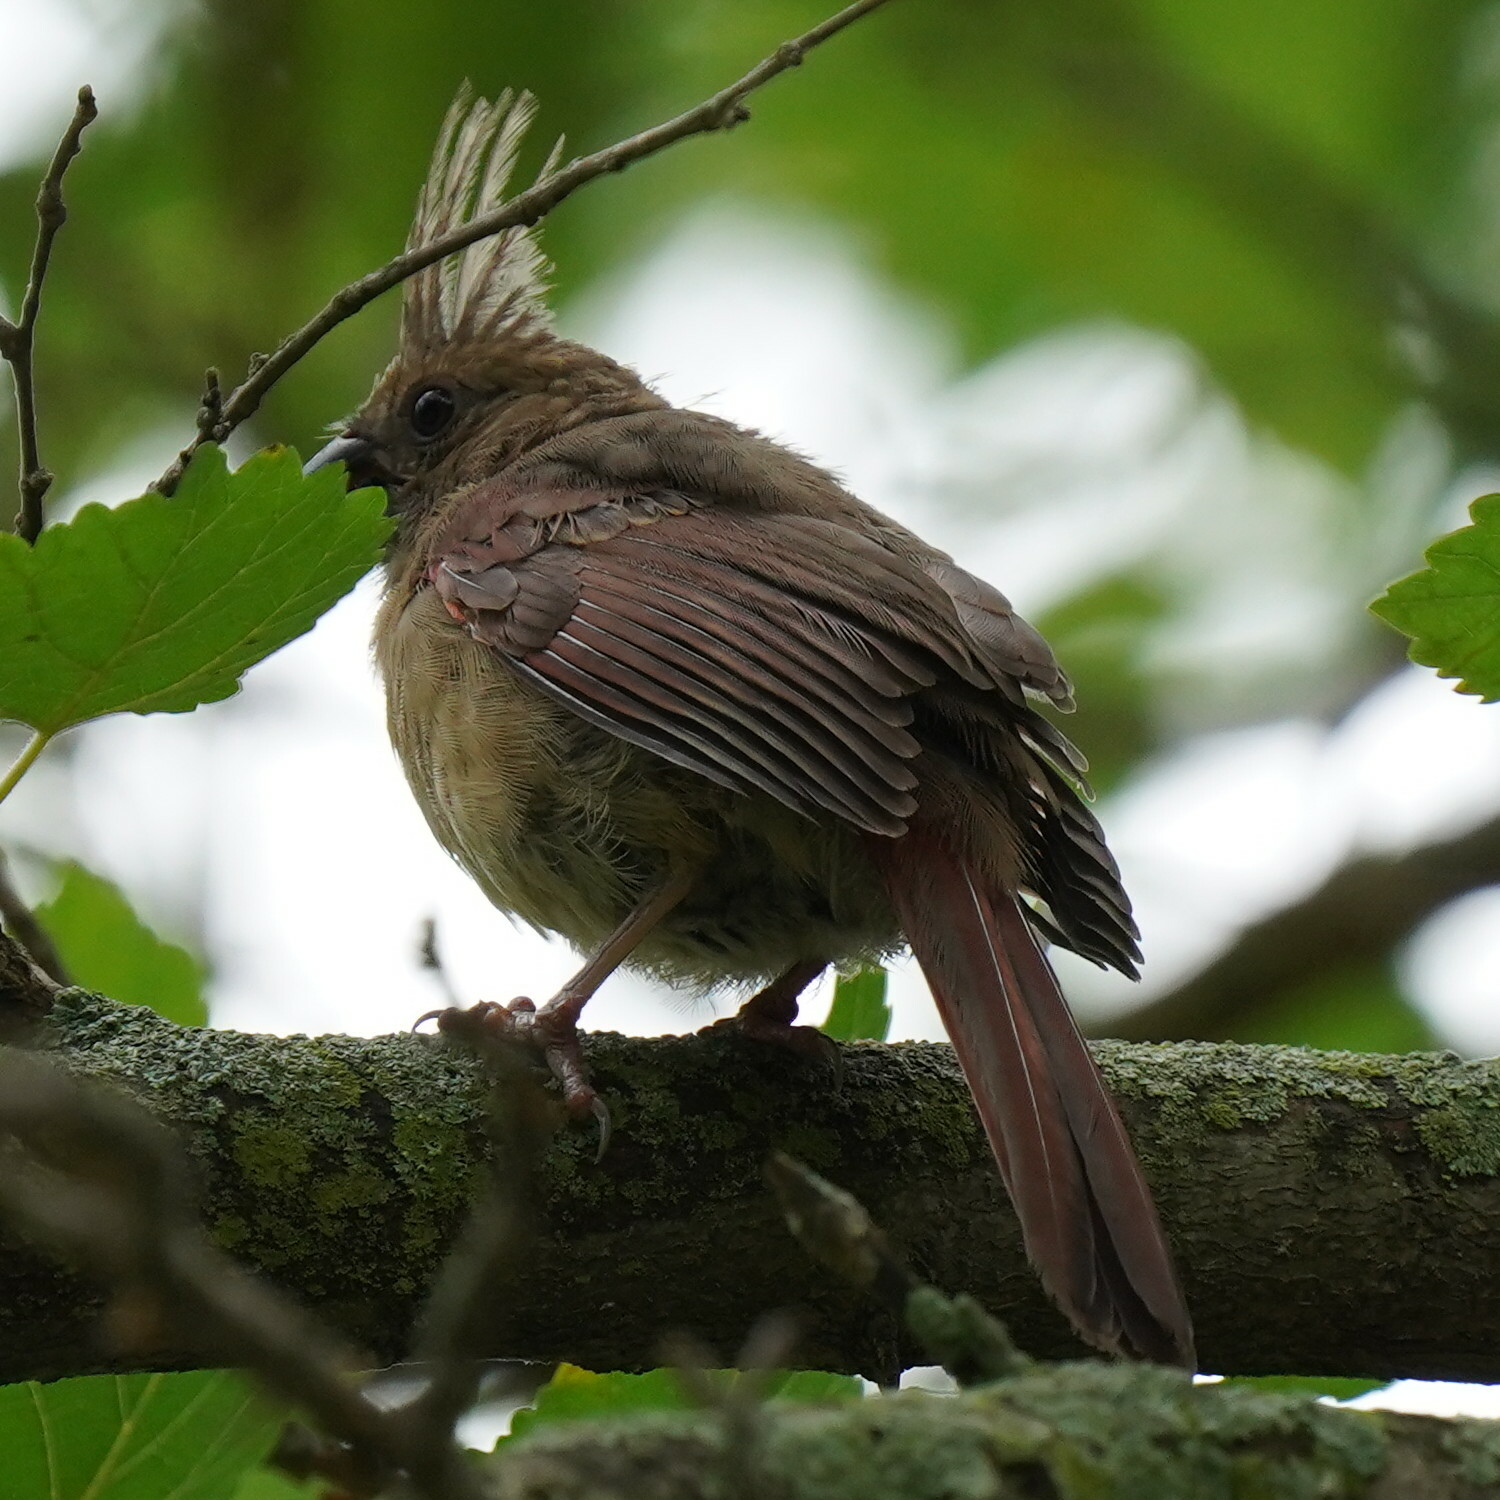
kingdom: Animalia
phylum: Chordata
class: Aves
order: Passeriformes
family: Cardinalidae
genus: Cardinalis
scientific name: Cardinalis cardinalis
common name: Northern cardinal
